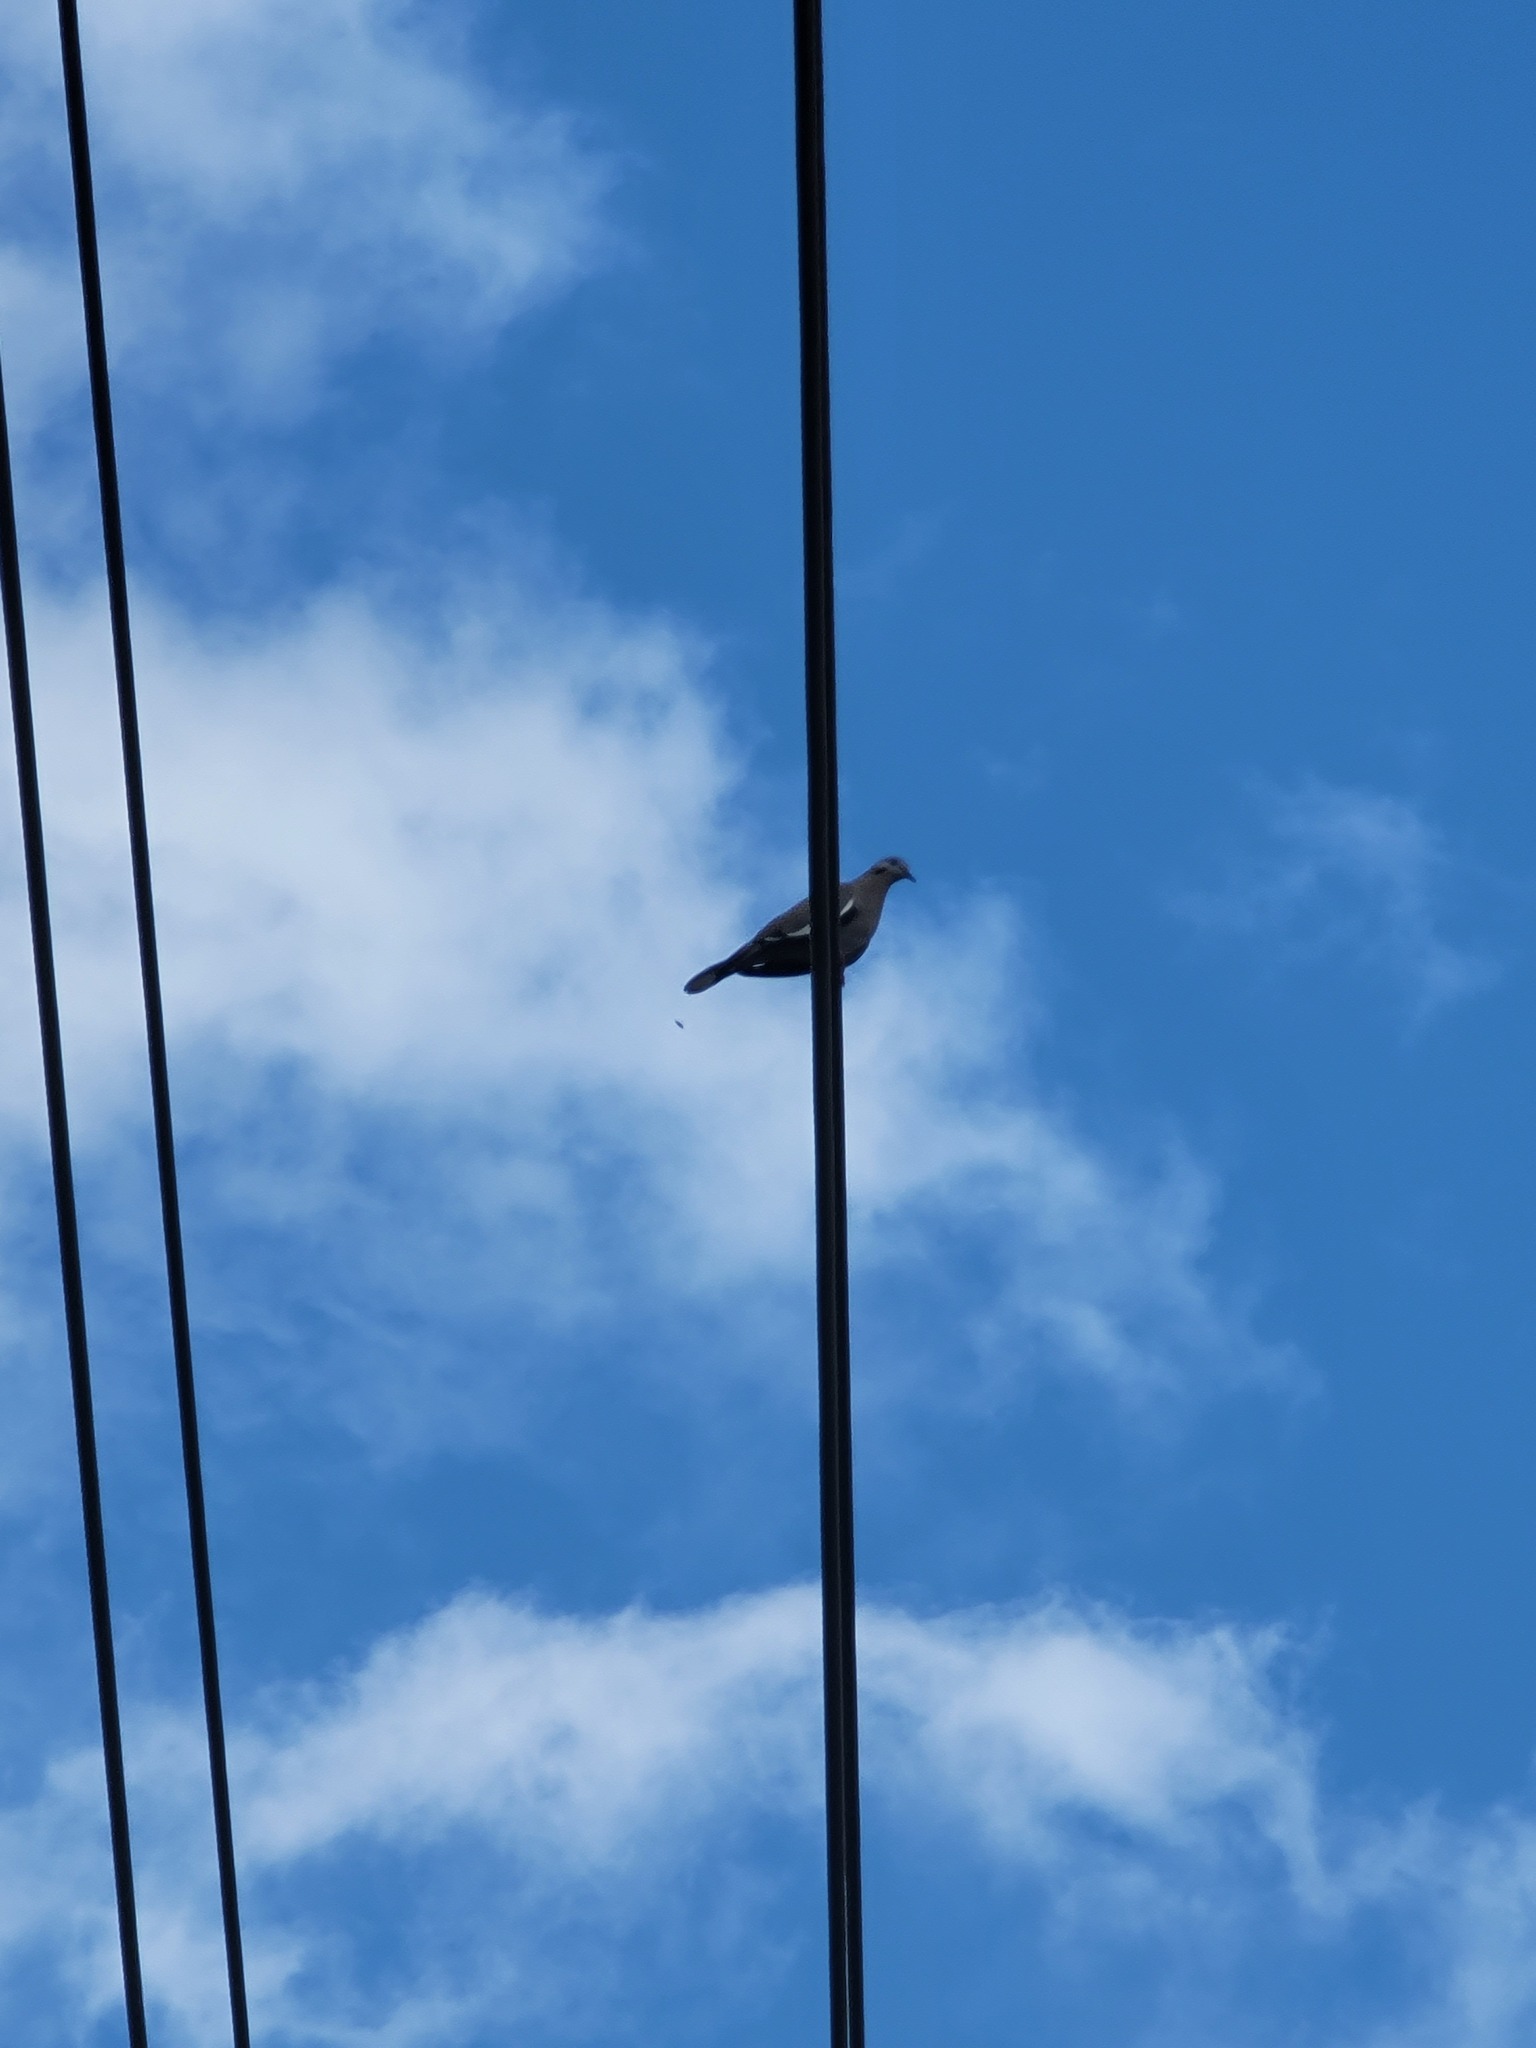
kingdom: Animalia
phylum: Chordata
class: Aves
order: Columbiformes
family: Columbidae
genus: Zenaida
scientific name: Zenaida asiatica
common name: White-winged dove
